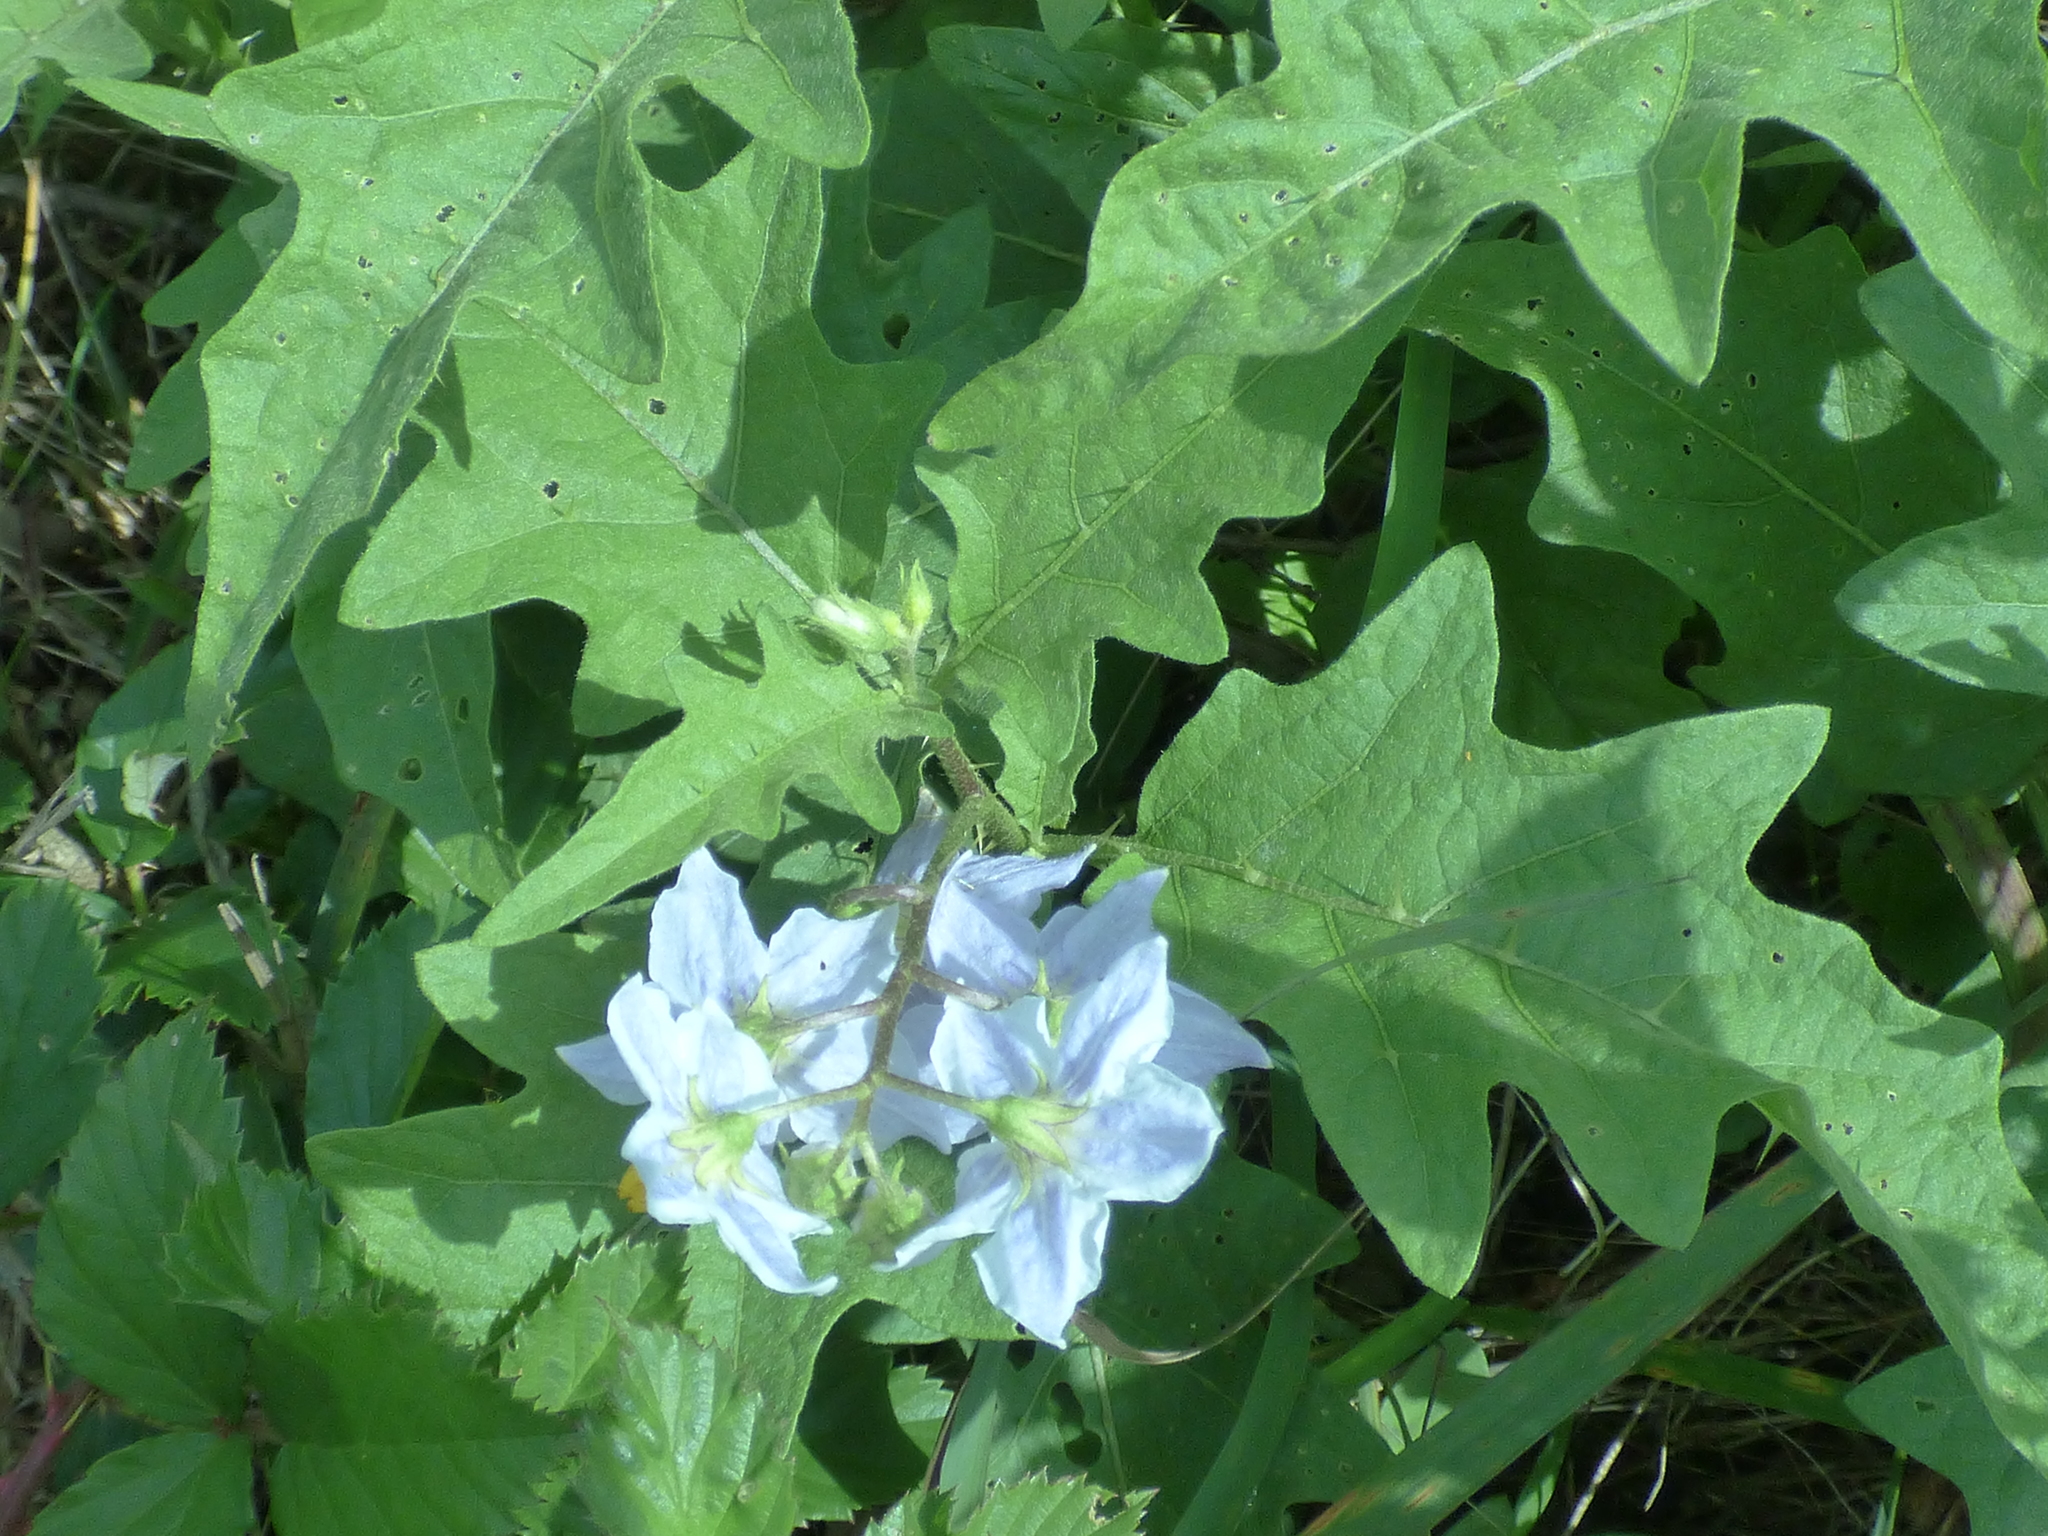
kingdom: Plantae
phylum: Tracheophyta
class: Magnoliopsida
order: Solanales
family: Solanaceae
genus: Solanum
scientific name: Solanum carolinense
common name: Horse-nettle
